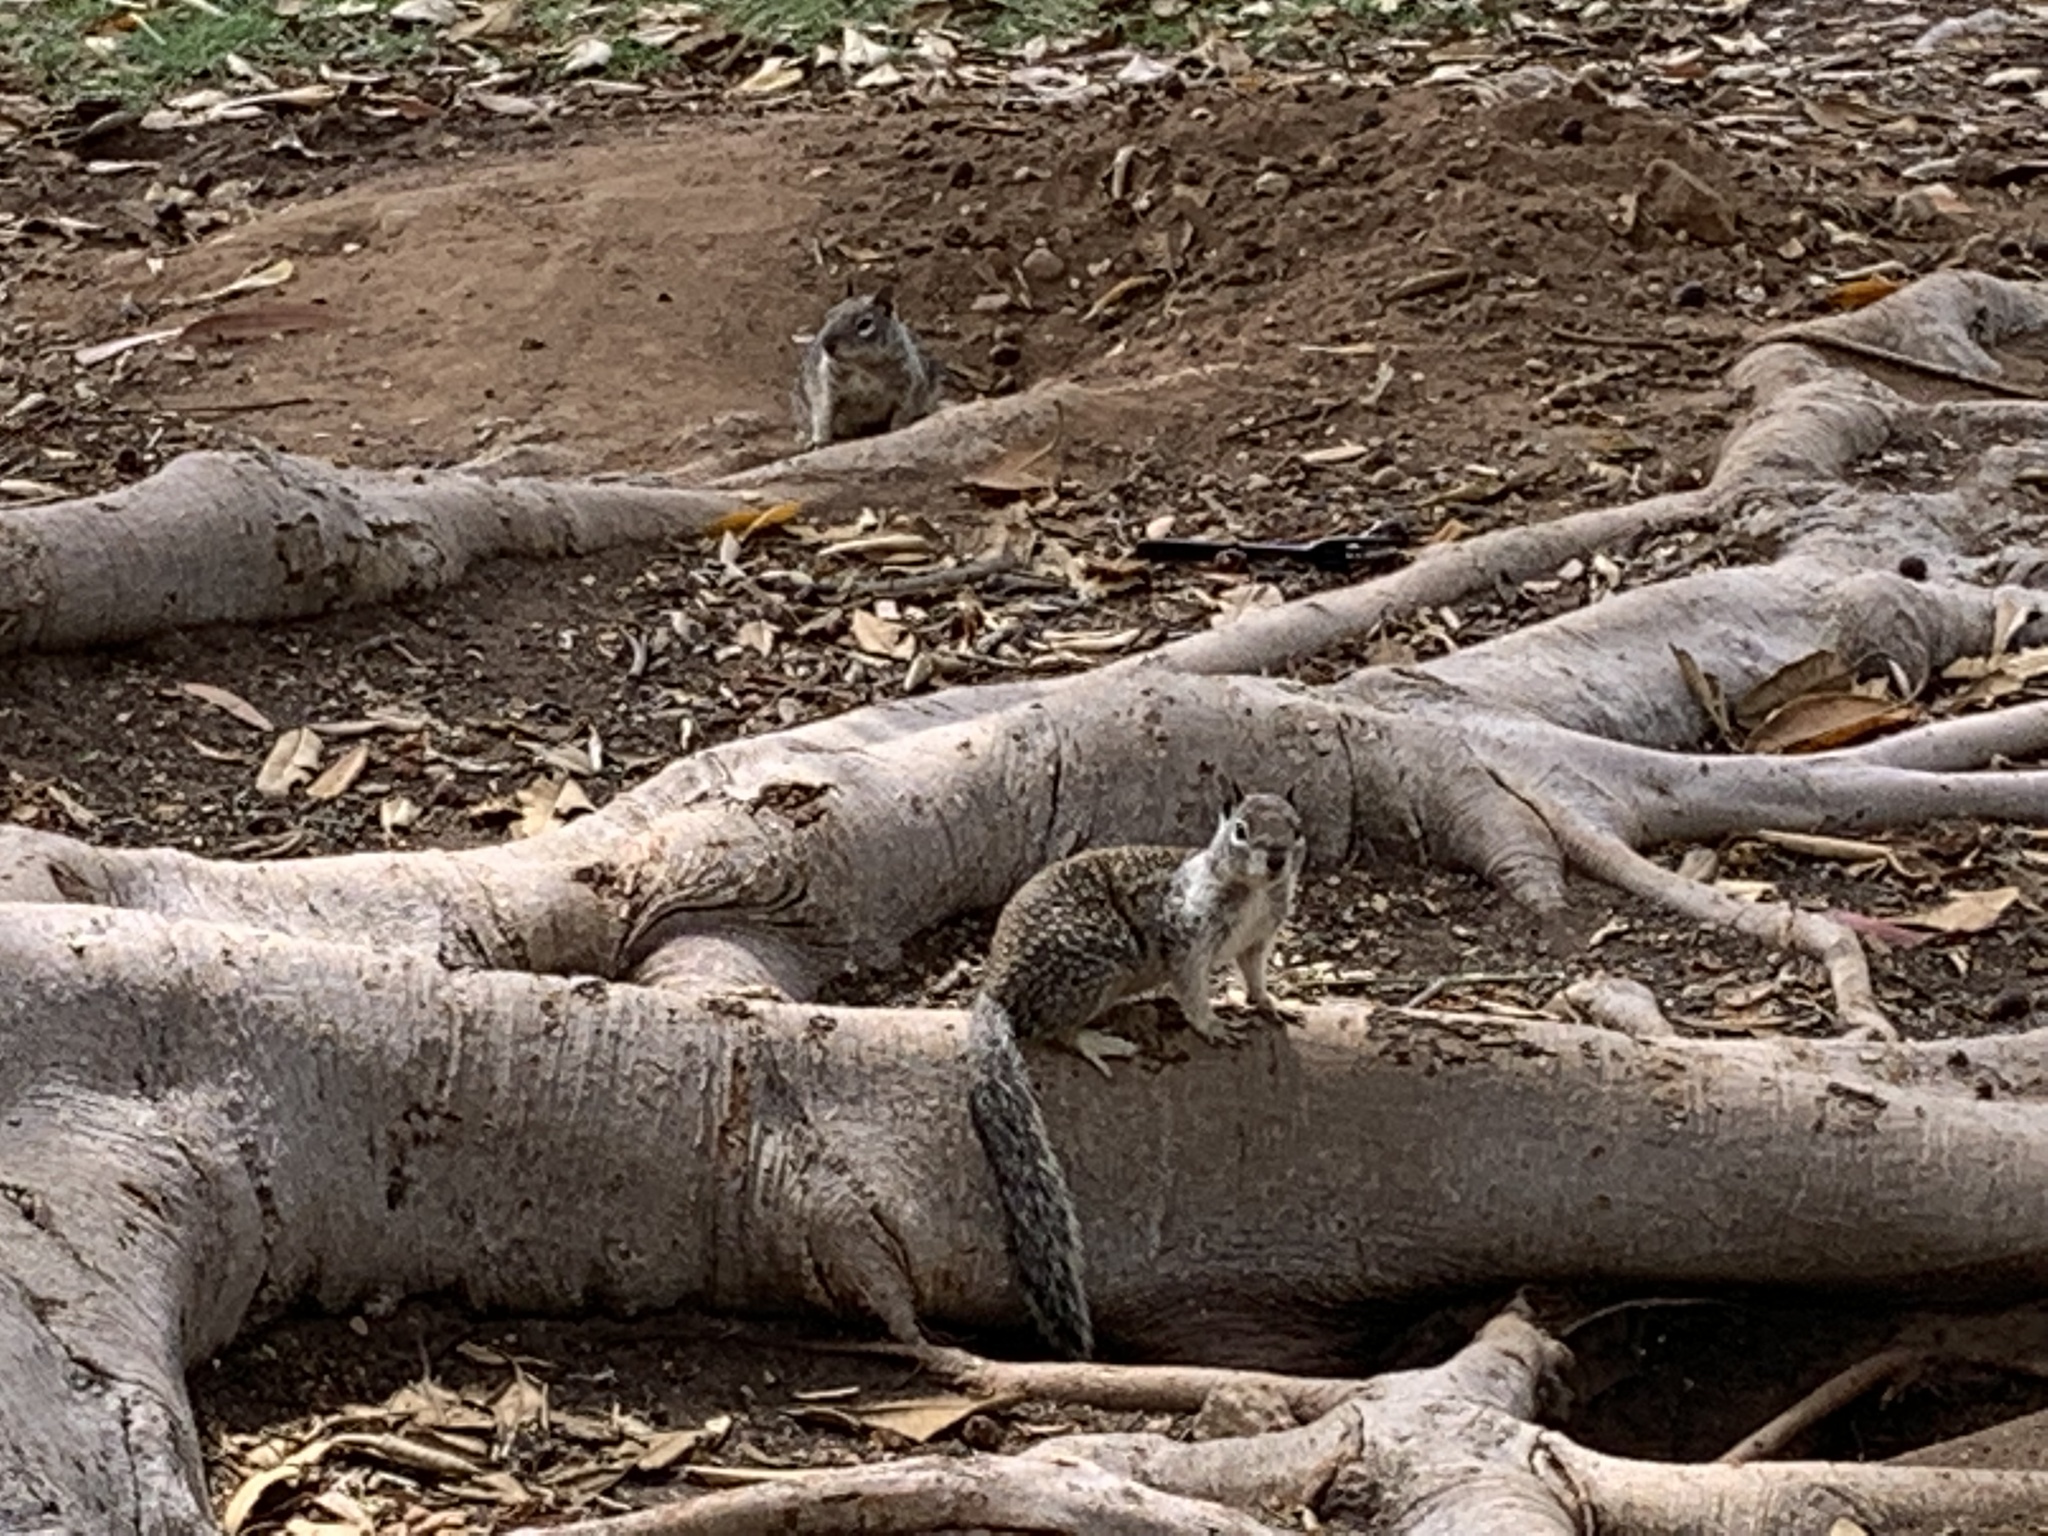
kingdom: Animalia
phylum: Chordata
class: Mammalia
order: Rodentia
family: Sciuridae
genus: Otospermophilus
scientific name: Otospermophilus beecheyi
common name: California ground squirrel
